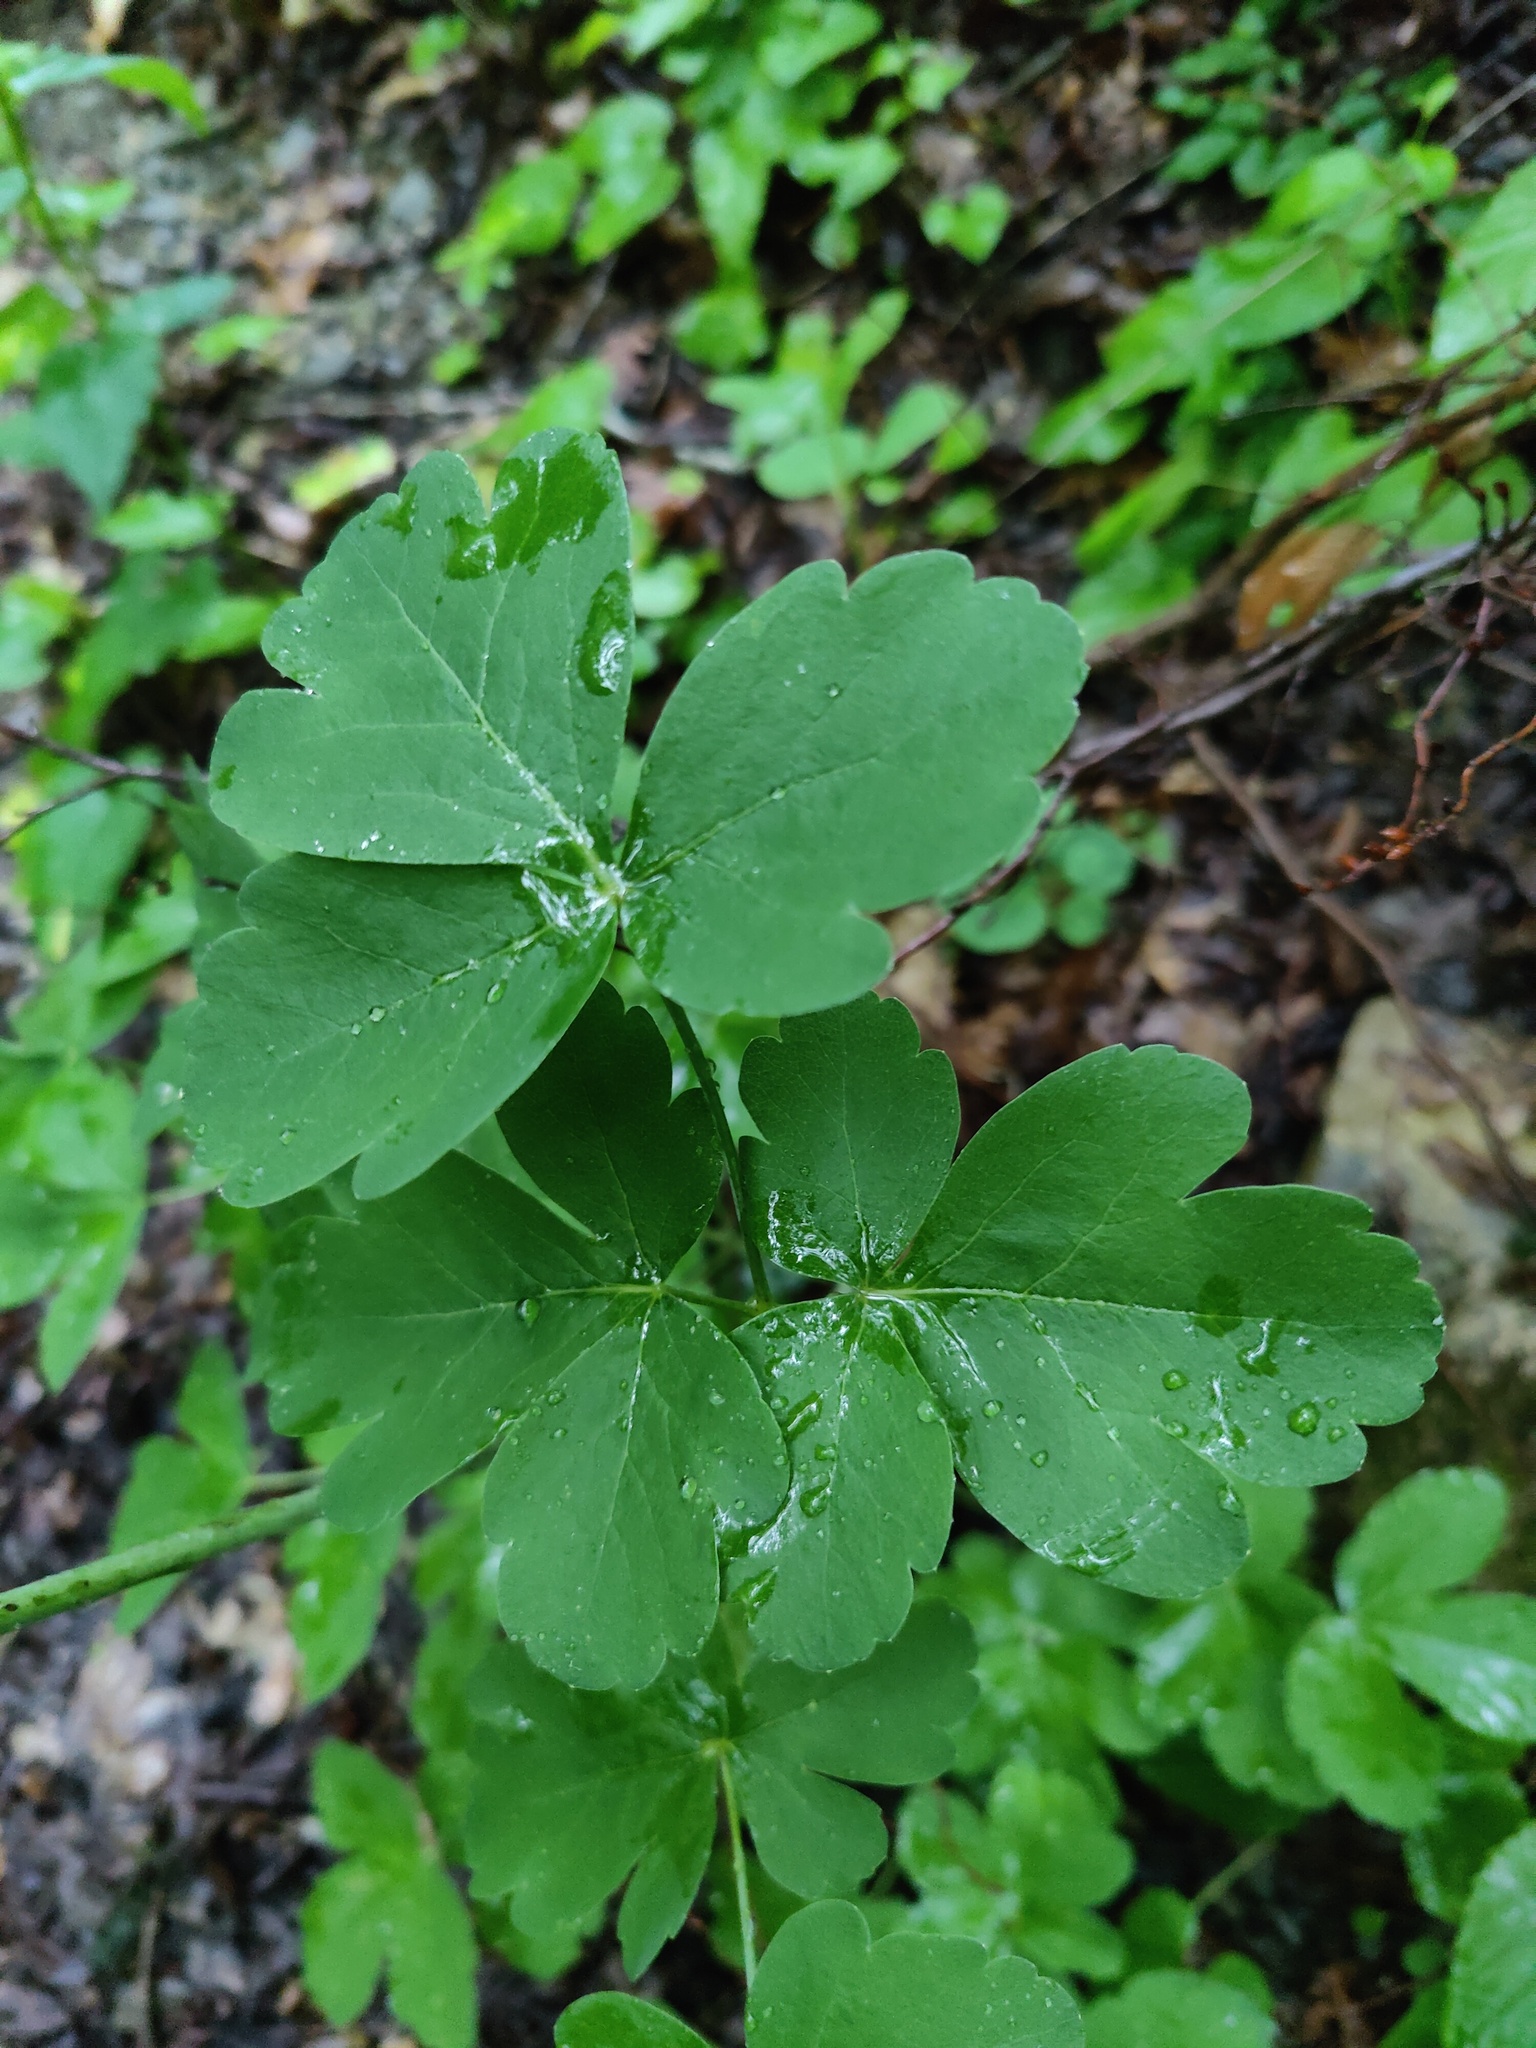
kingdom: Plantae
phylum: Tracheophyta
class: Magnoliopsida
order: Apiales
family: Apiaceae
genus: Laser
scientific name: Laser trilobum
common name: Laser
